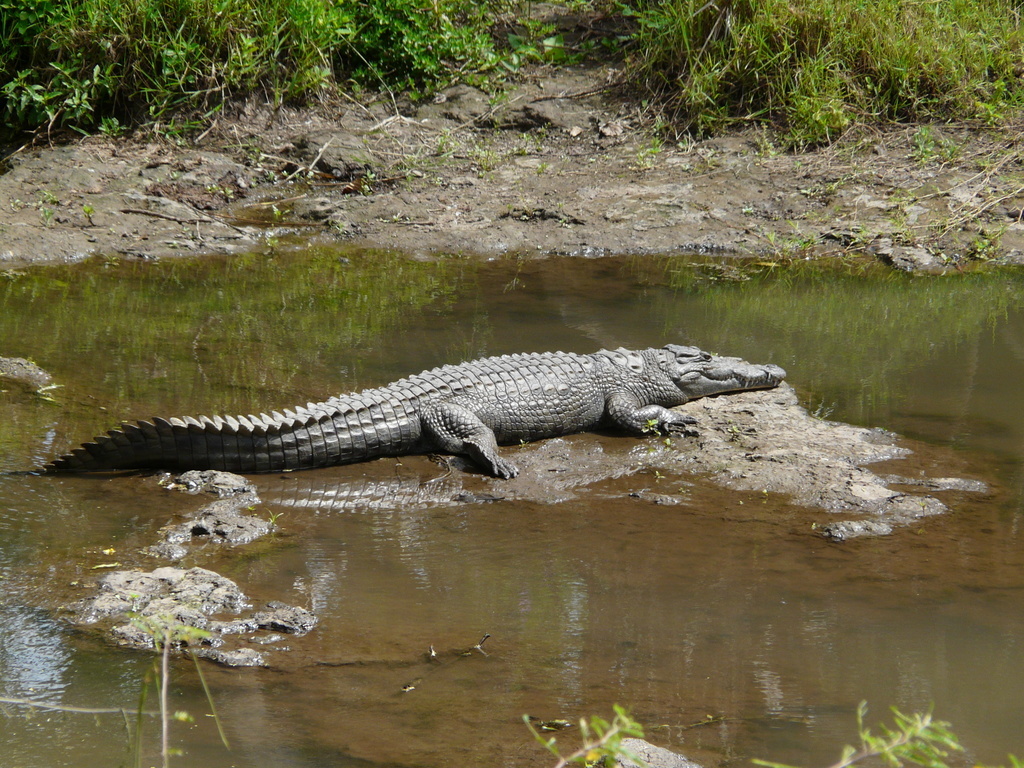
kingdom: Animalia
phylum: Chordata
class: Crocodylia
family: Crocodylidae
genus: Crocodylus
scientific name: Crocodylus niloticus
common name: Nile crocodile
